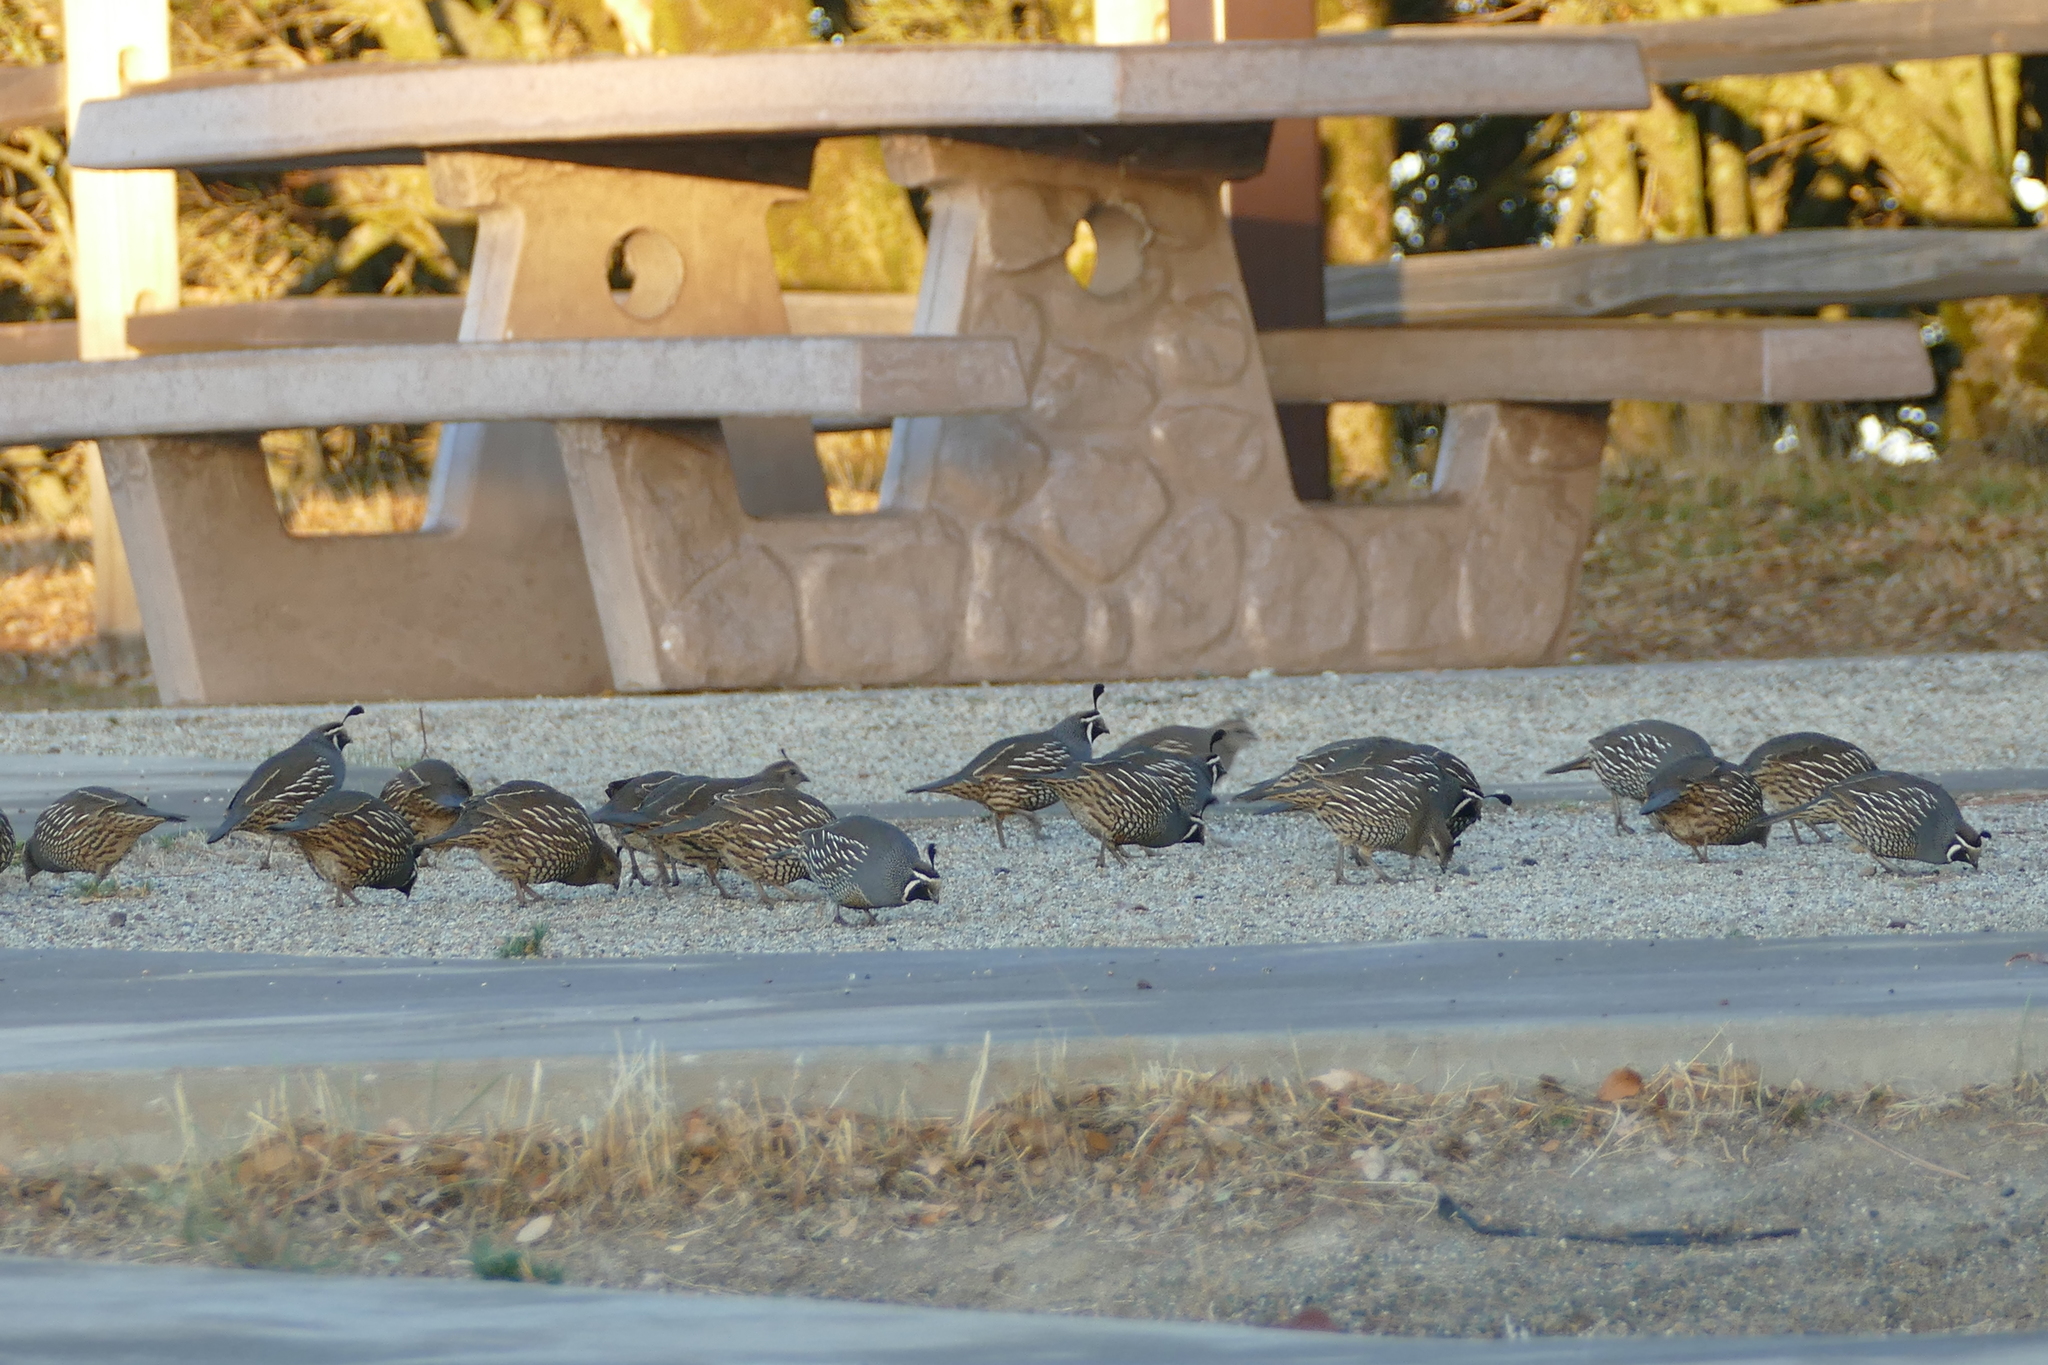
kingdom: Animalia
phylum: Chordata
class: Aves
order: Galliformes
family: Odontophoridae
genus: Callipepla
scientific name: Callipepla californica
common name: California quail
